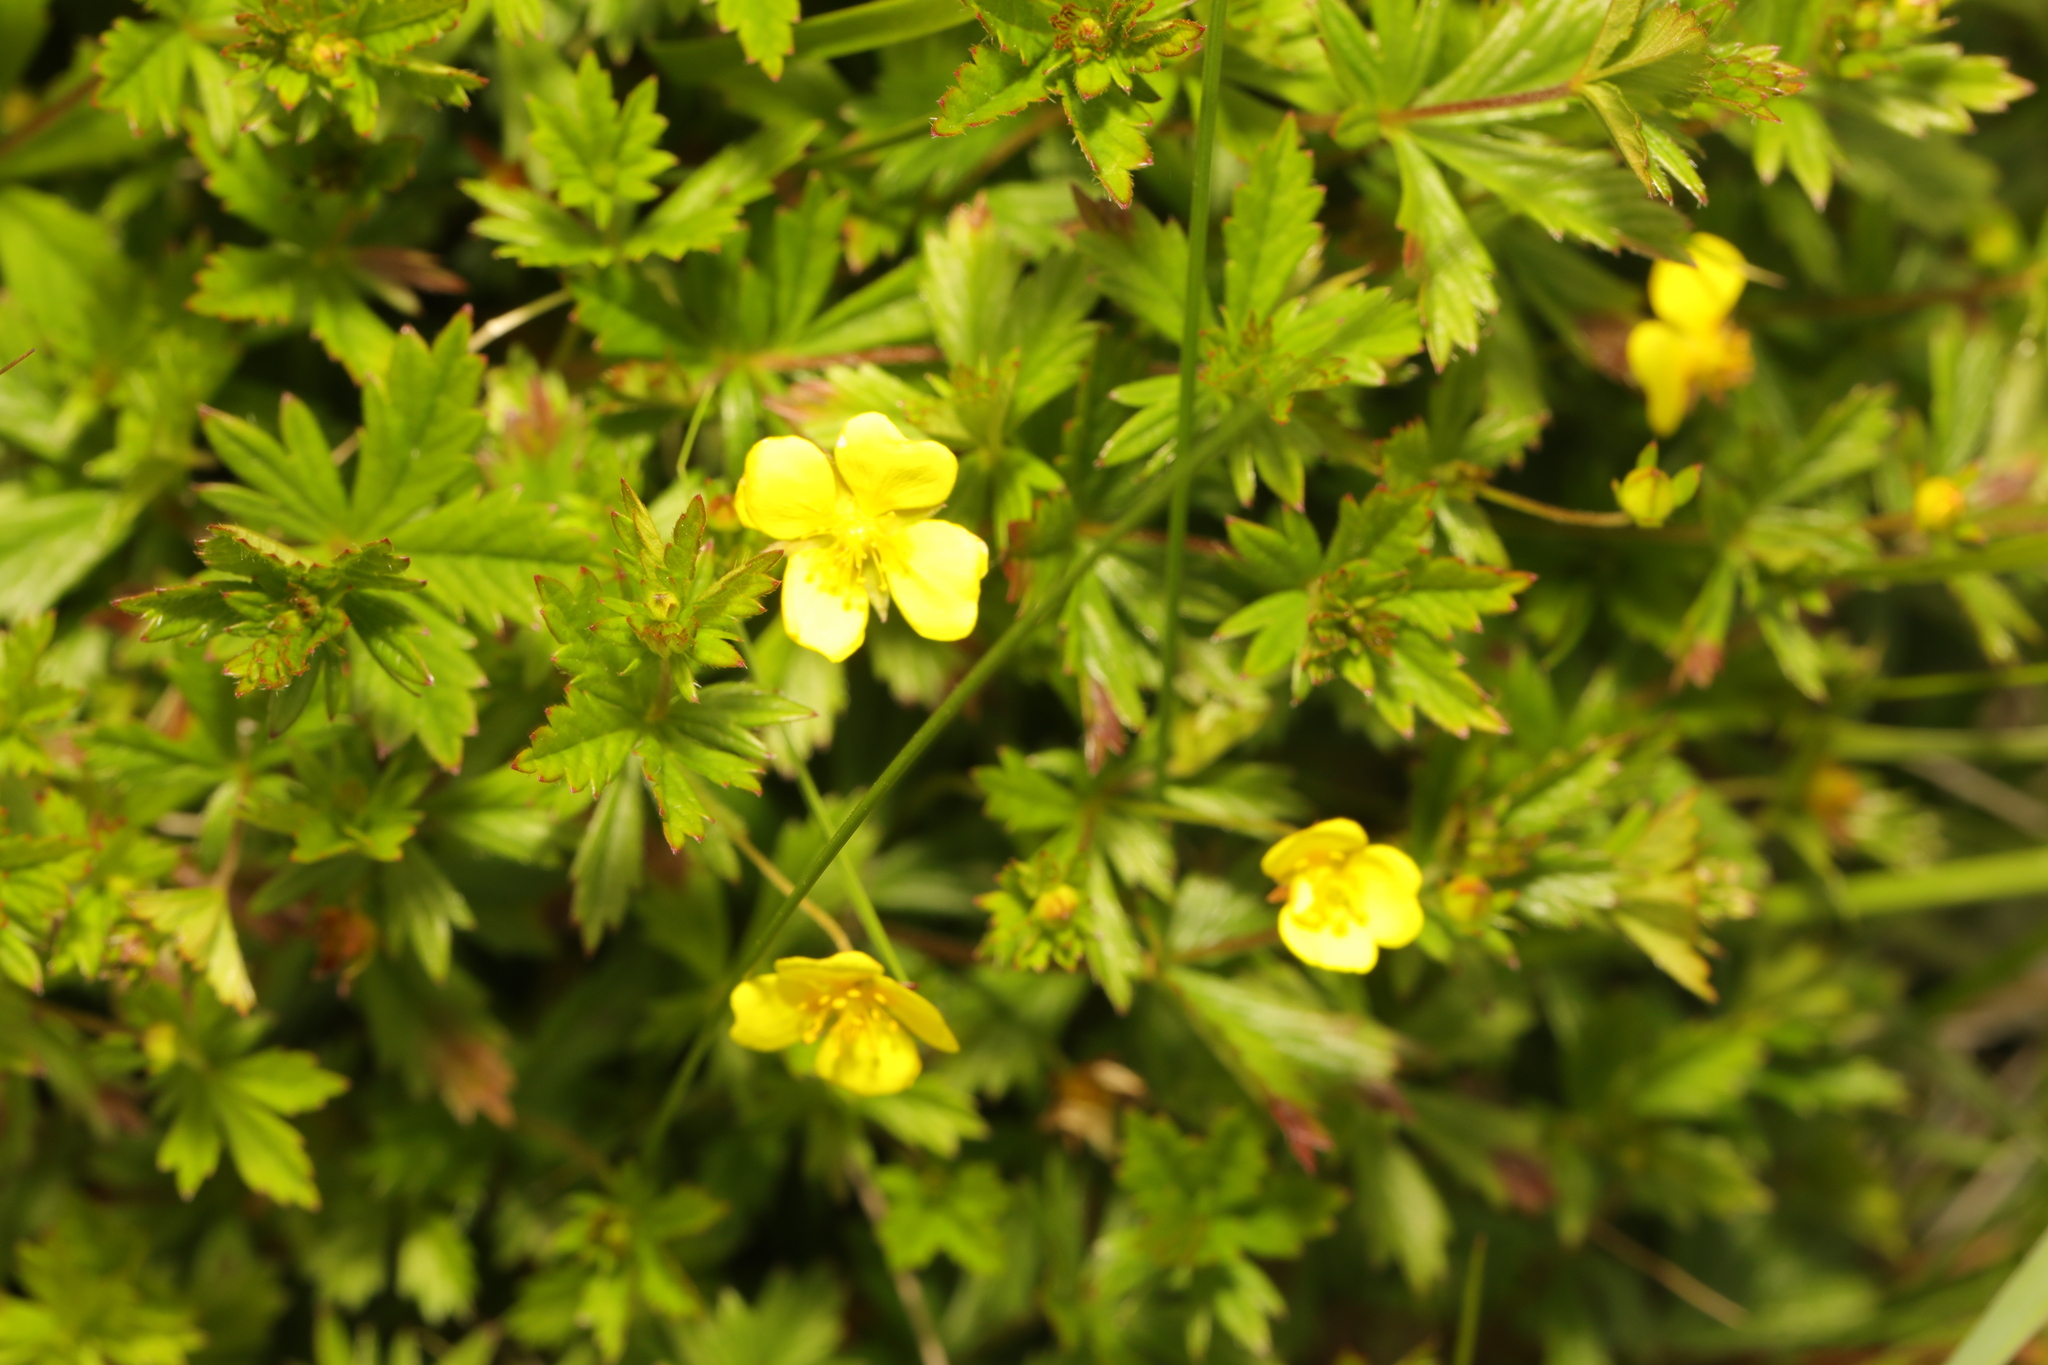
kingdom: Plantae
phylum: Tracheophyta
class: Magnoliopsida
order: Rosales
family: Rosaceae
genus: Potentilla
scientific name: Potentilla erecta
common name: Tormentil
